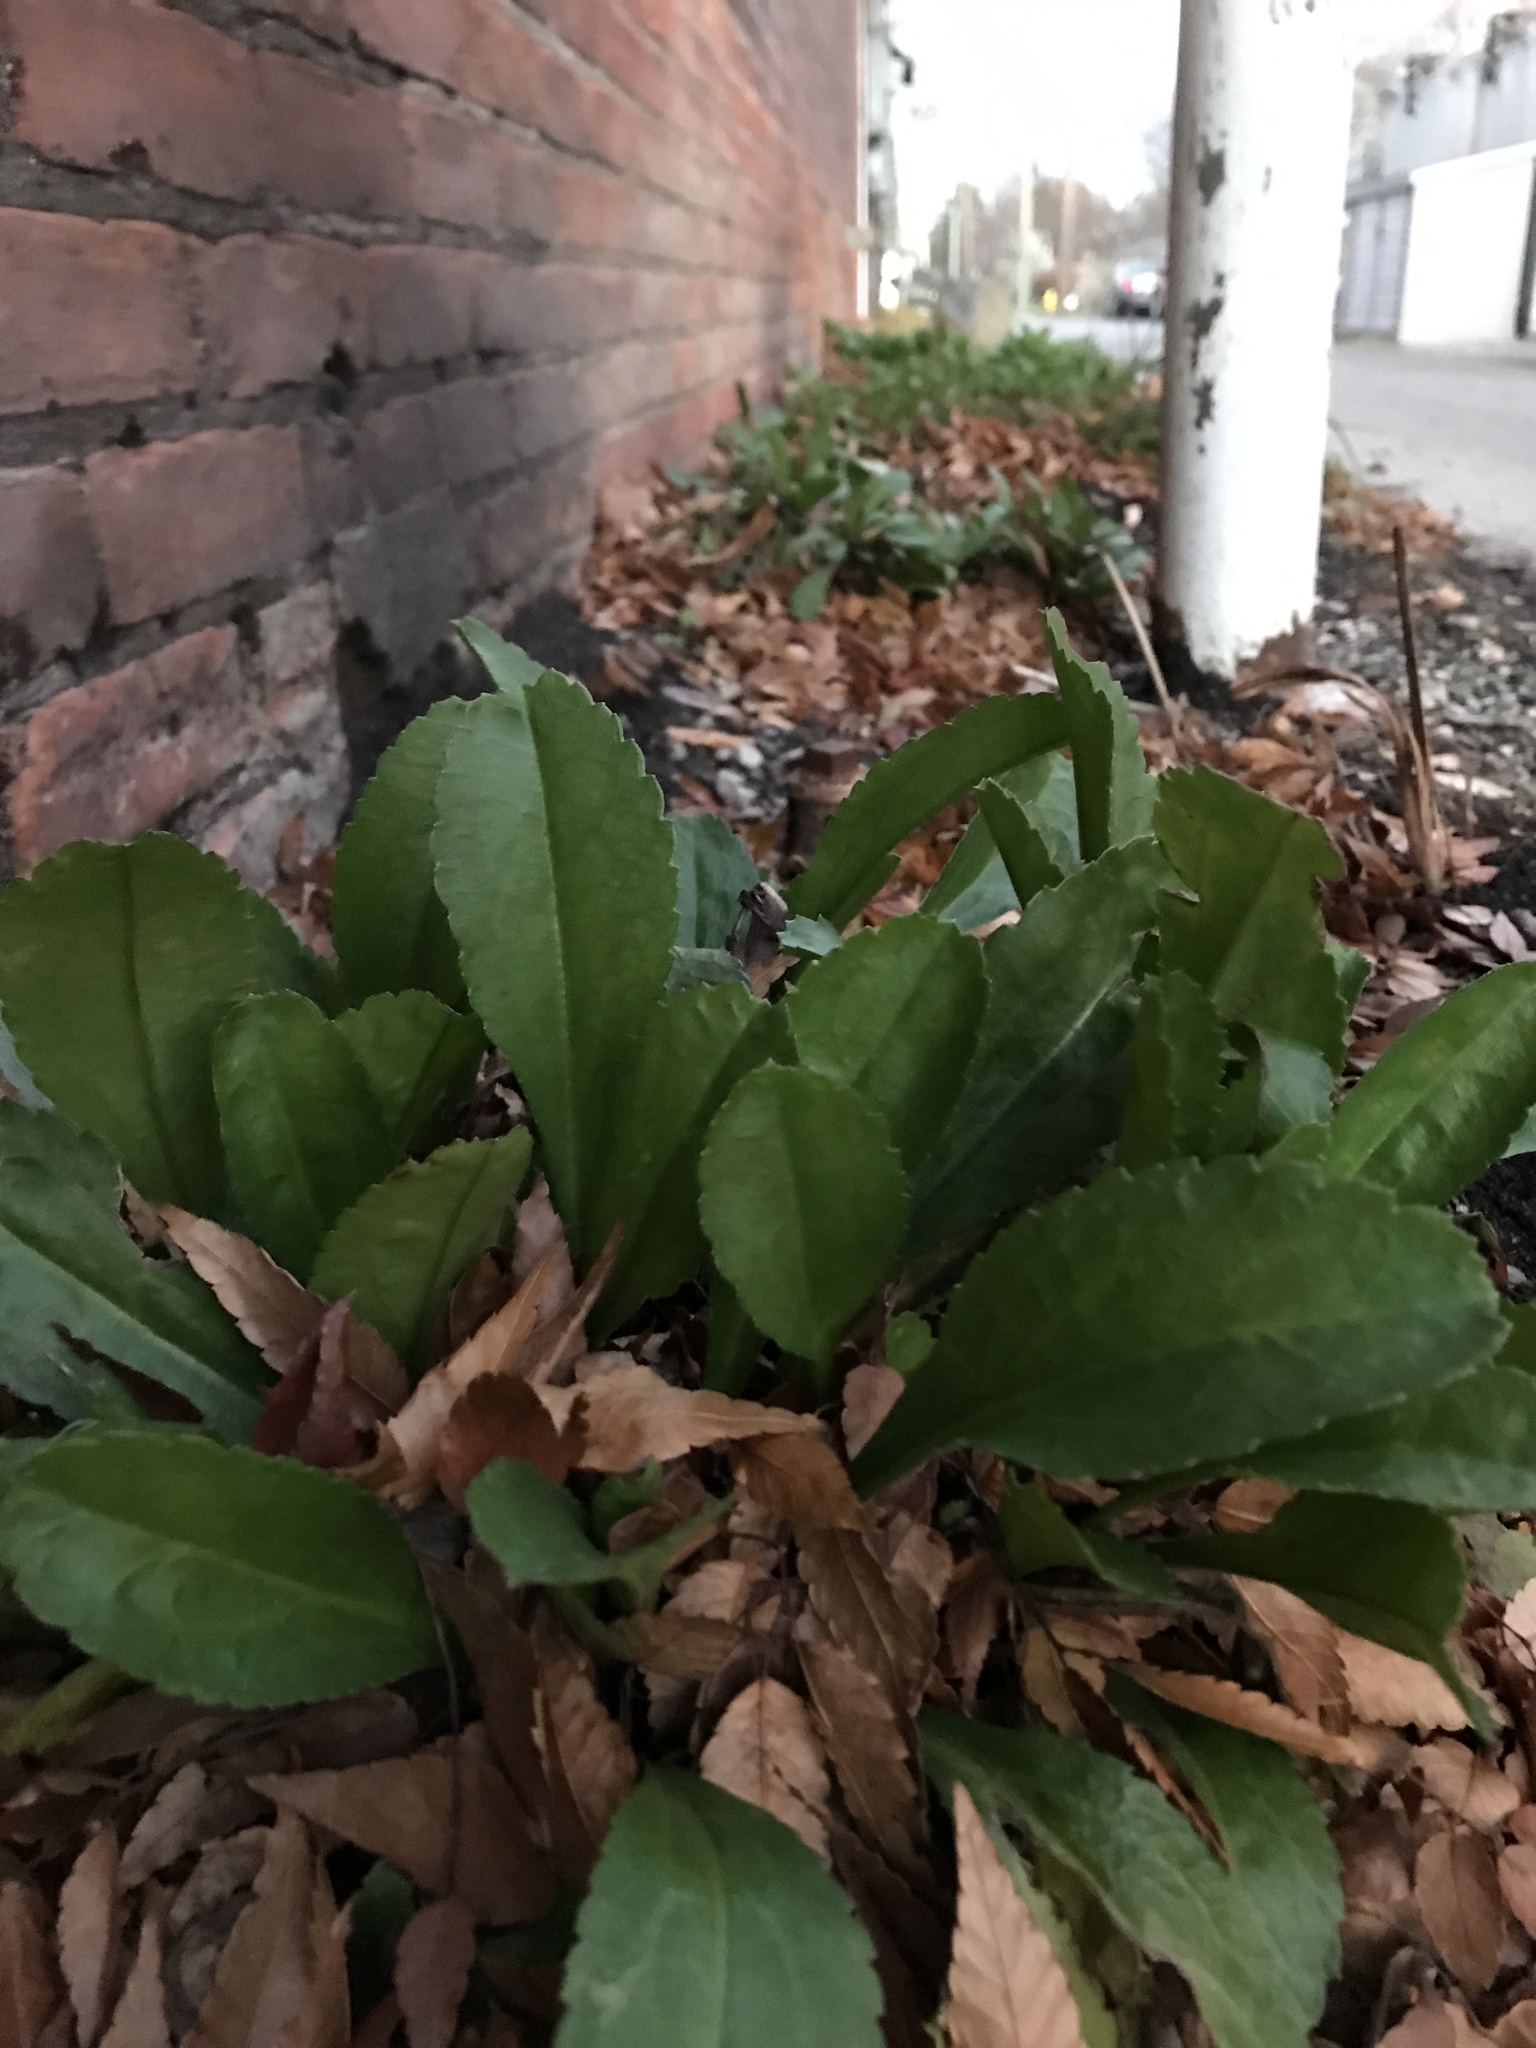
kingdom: Plantae
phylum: Tracheophyta
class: Magnoliopsida
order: Asterales
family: Asteraceae
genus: Leucanthemum
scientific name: Leucanthemum maximum
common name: Max chrysanthemum
